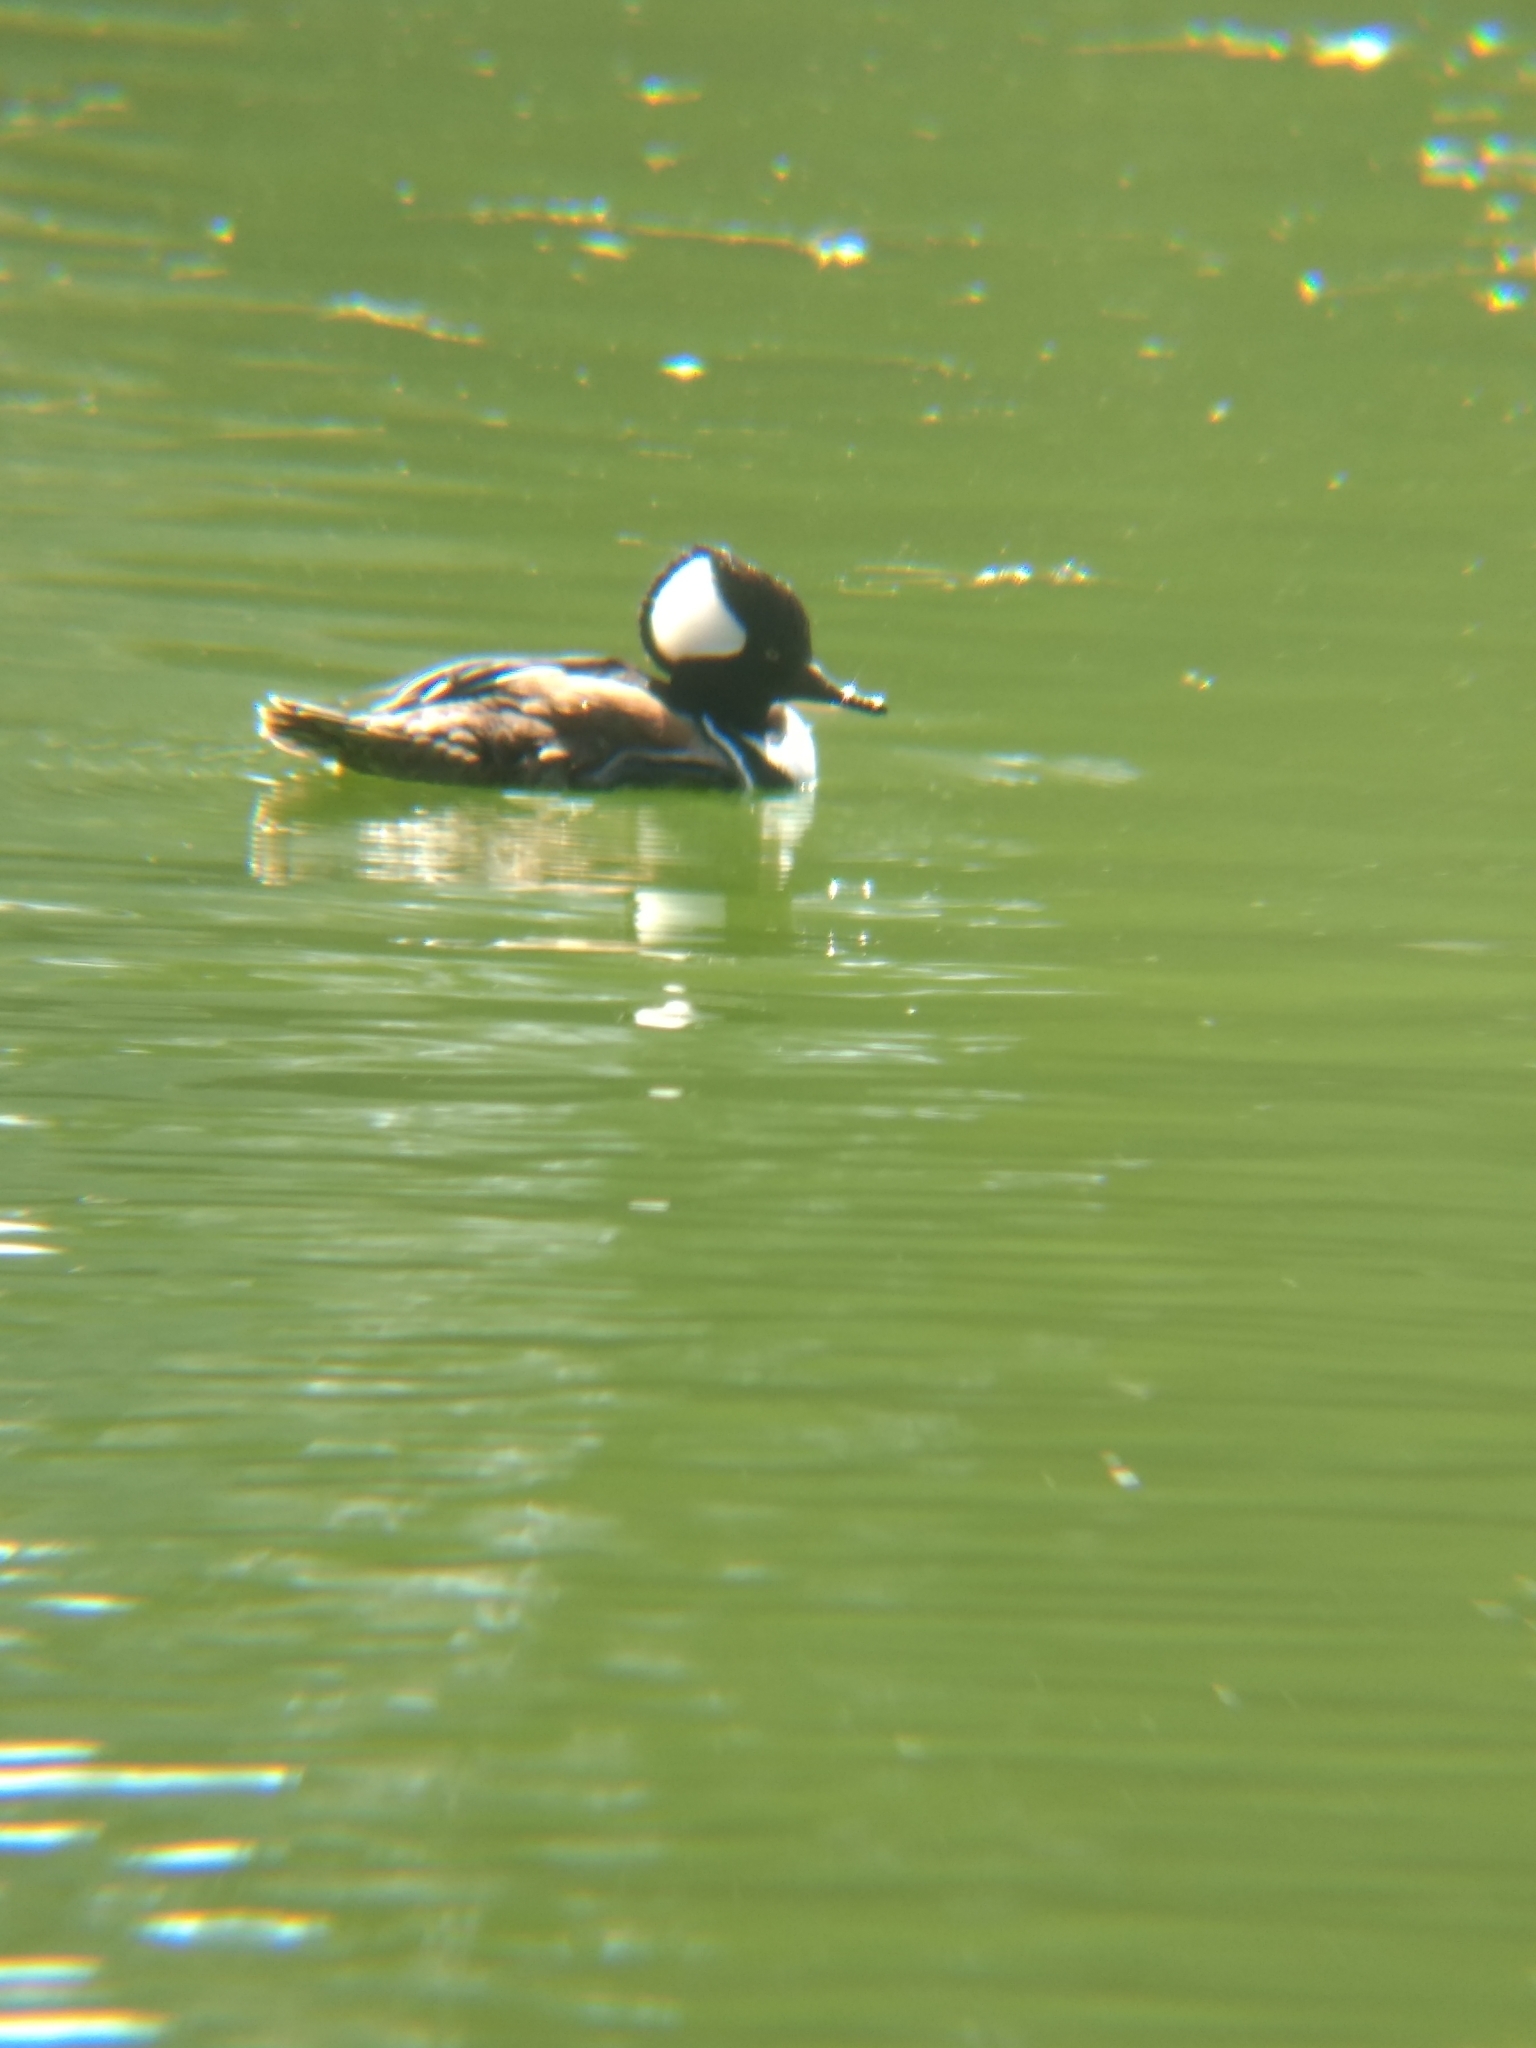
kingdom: Animalia
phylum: Chordata
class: Aves
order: Anseriformes
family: Anatidae
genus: Lophodytes
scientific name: Lophodytes cucullatus
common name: Hooded merganser
